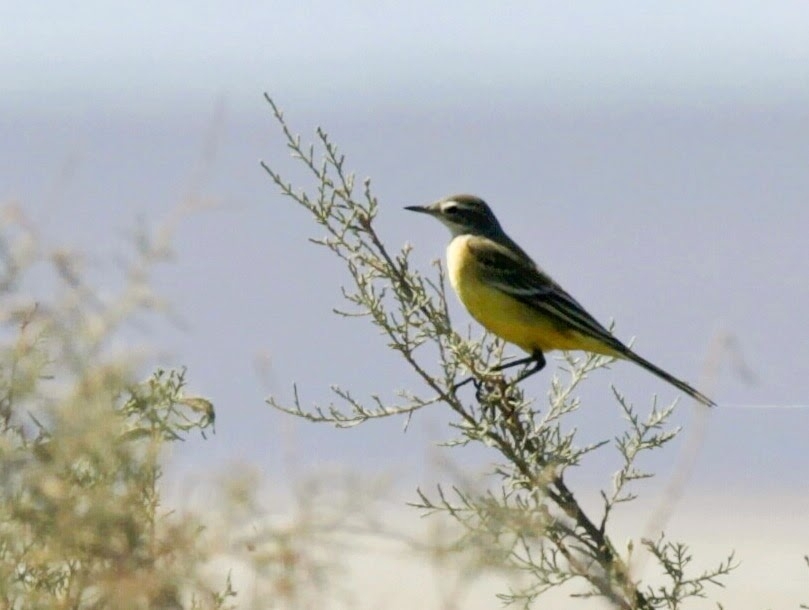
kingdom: Animalia
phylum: Chordata
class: Aves
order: Passeriformes
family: Motacillidae
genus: Motacilla
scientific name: Motacilla flava
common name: Western yellow wagtail
